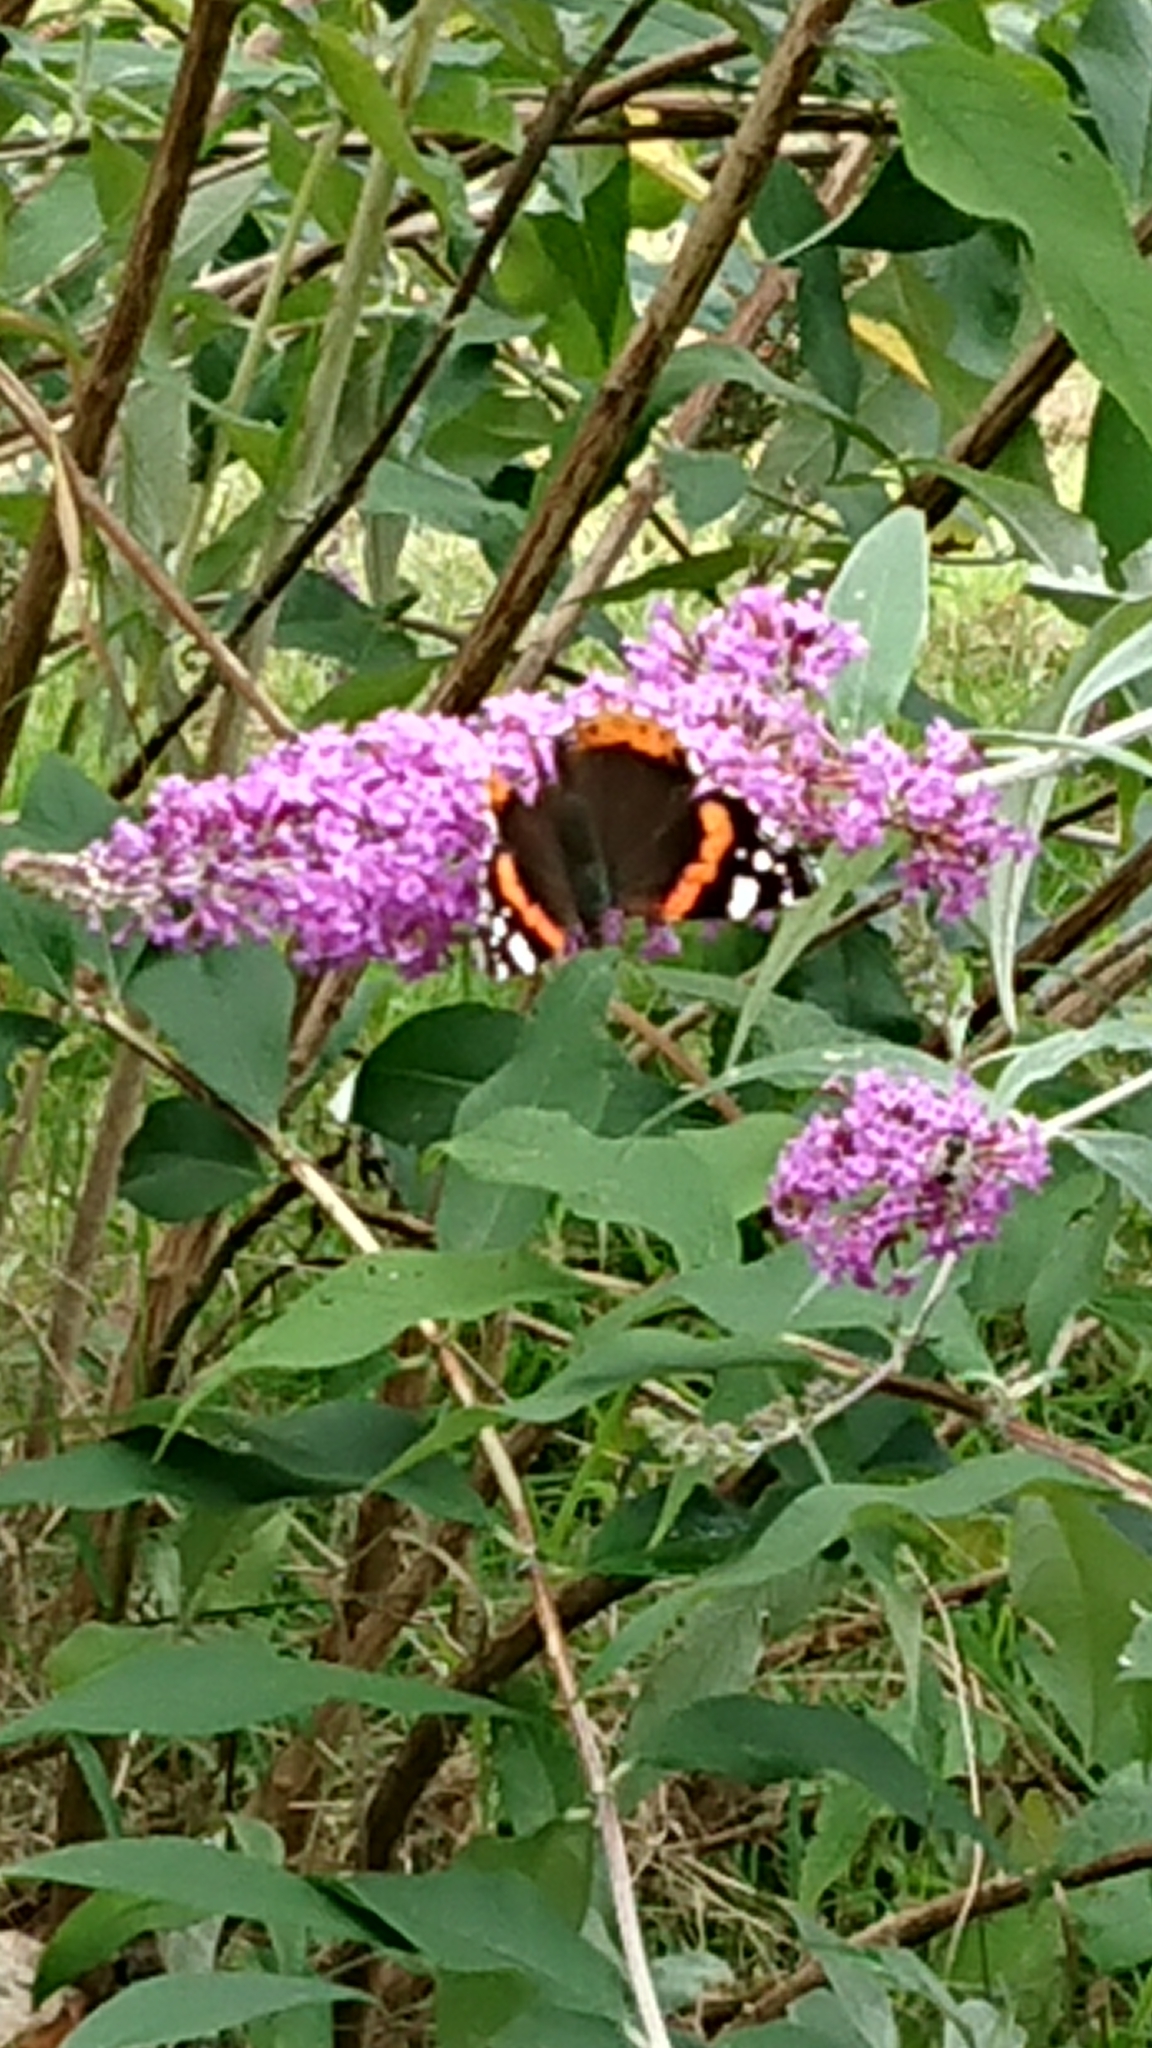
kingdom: Animalia
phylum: Arthropoda
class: Insecta
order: Lepidoptera
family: Nymphalidae
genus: Vanessa
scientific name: Vanessa atalanta
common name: Red admiral
